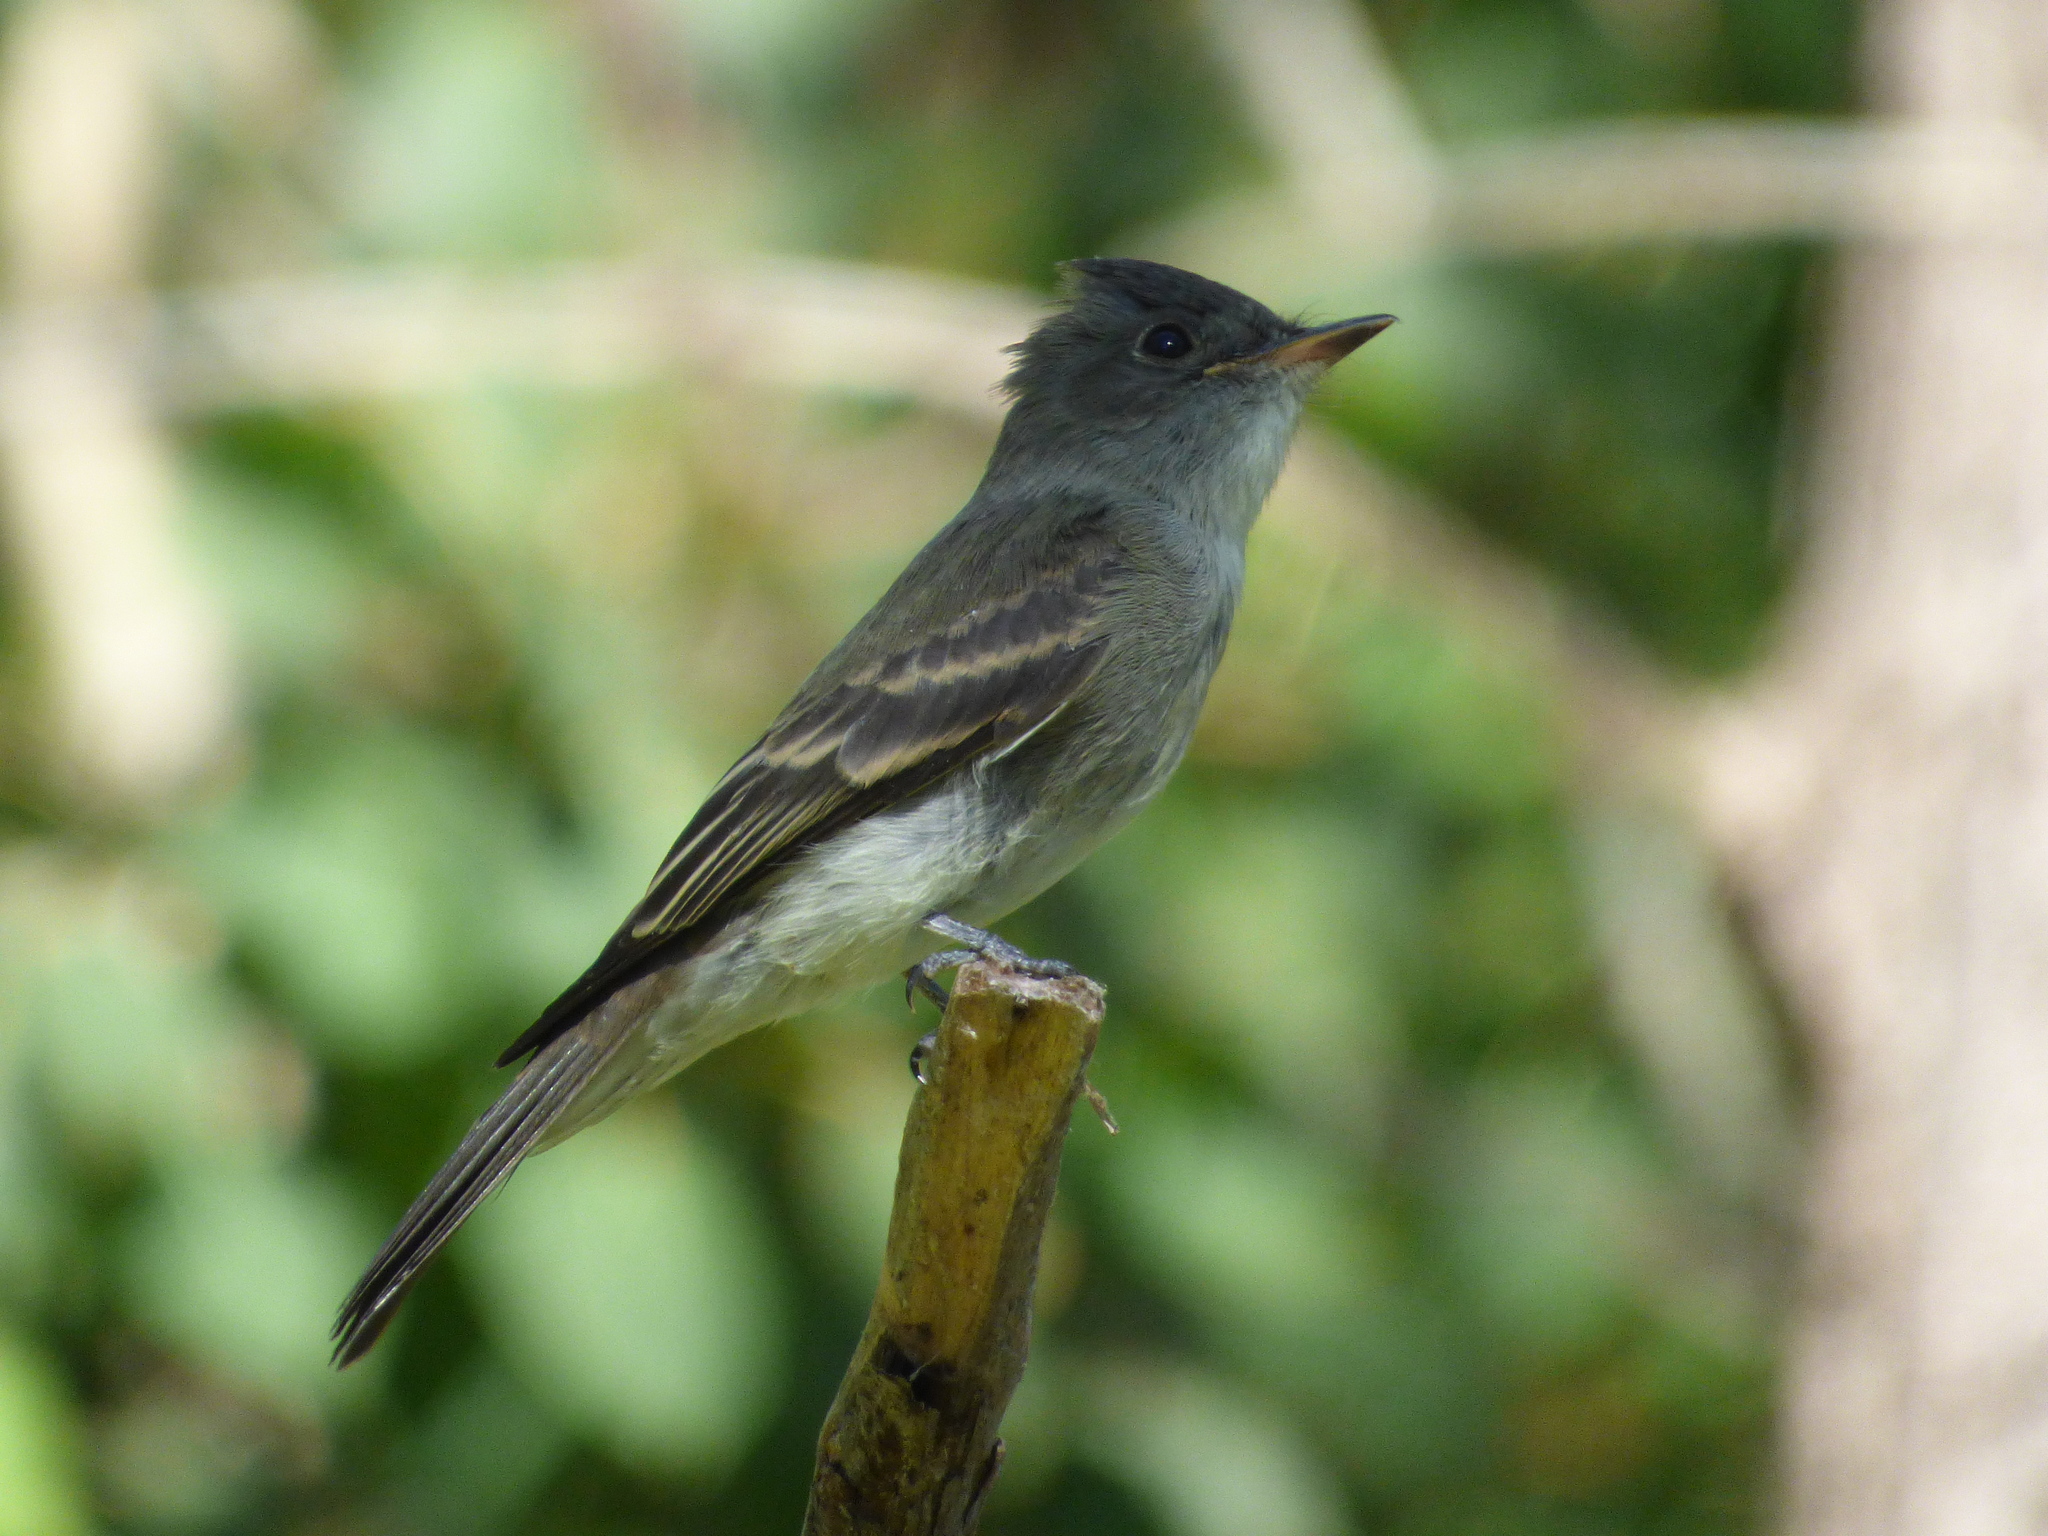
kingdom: Animalia
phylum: Chordata
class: Aves
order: Passeriformes
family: Tyrannidae
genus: Contopus
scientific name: Contopus virens
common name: Eastern wood-pewee
